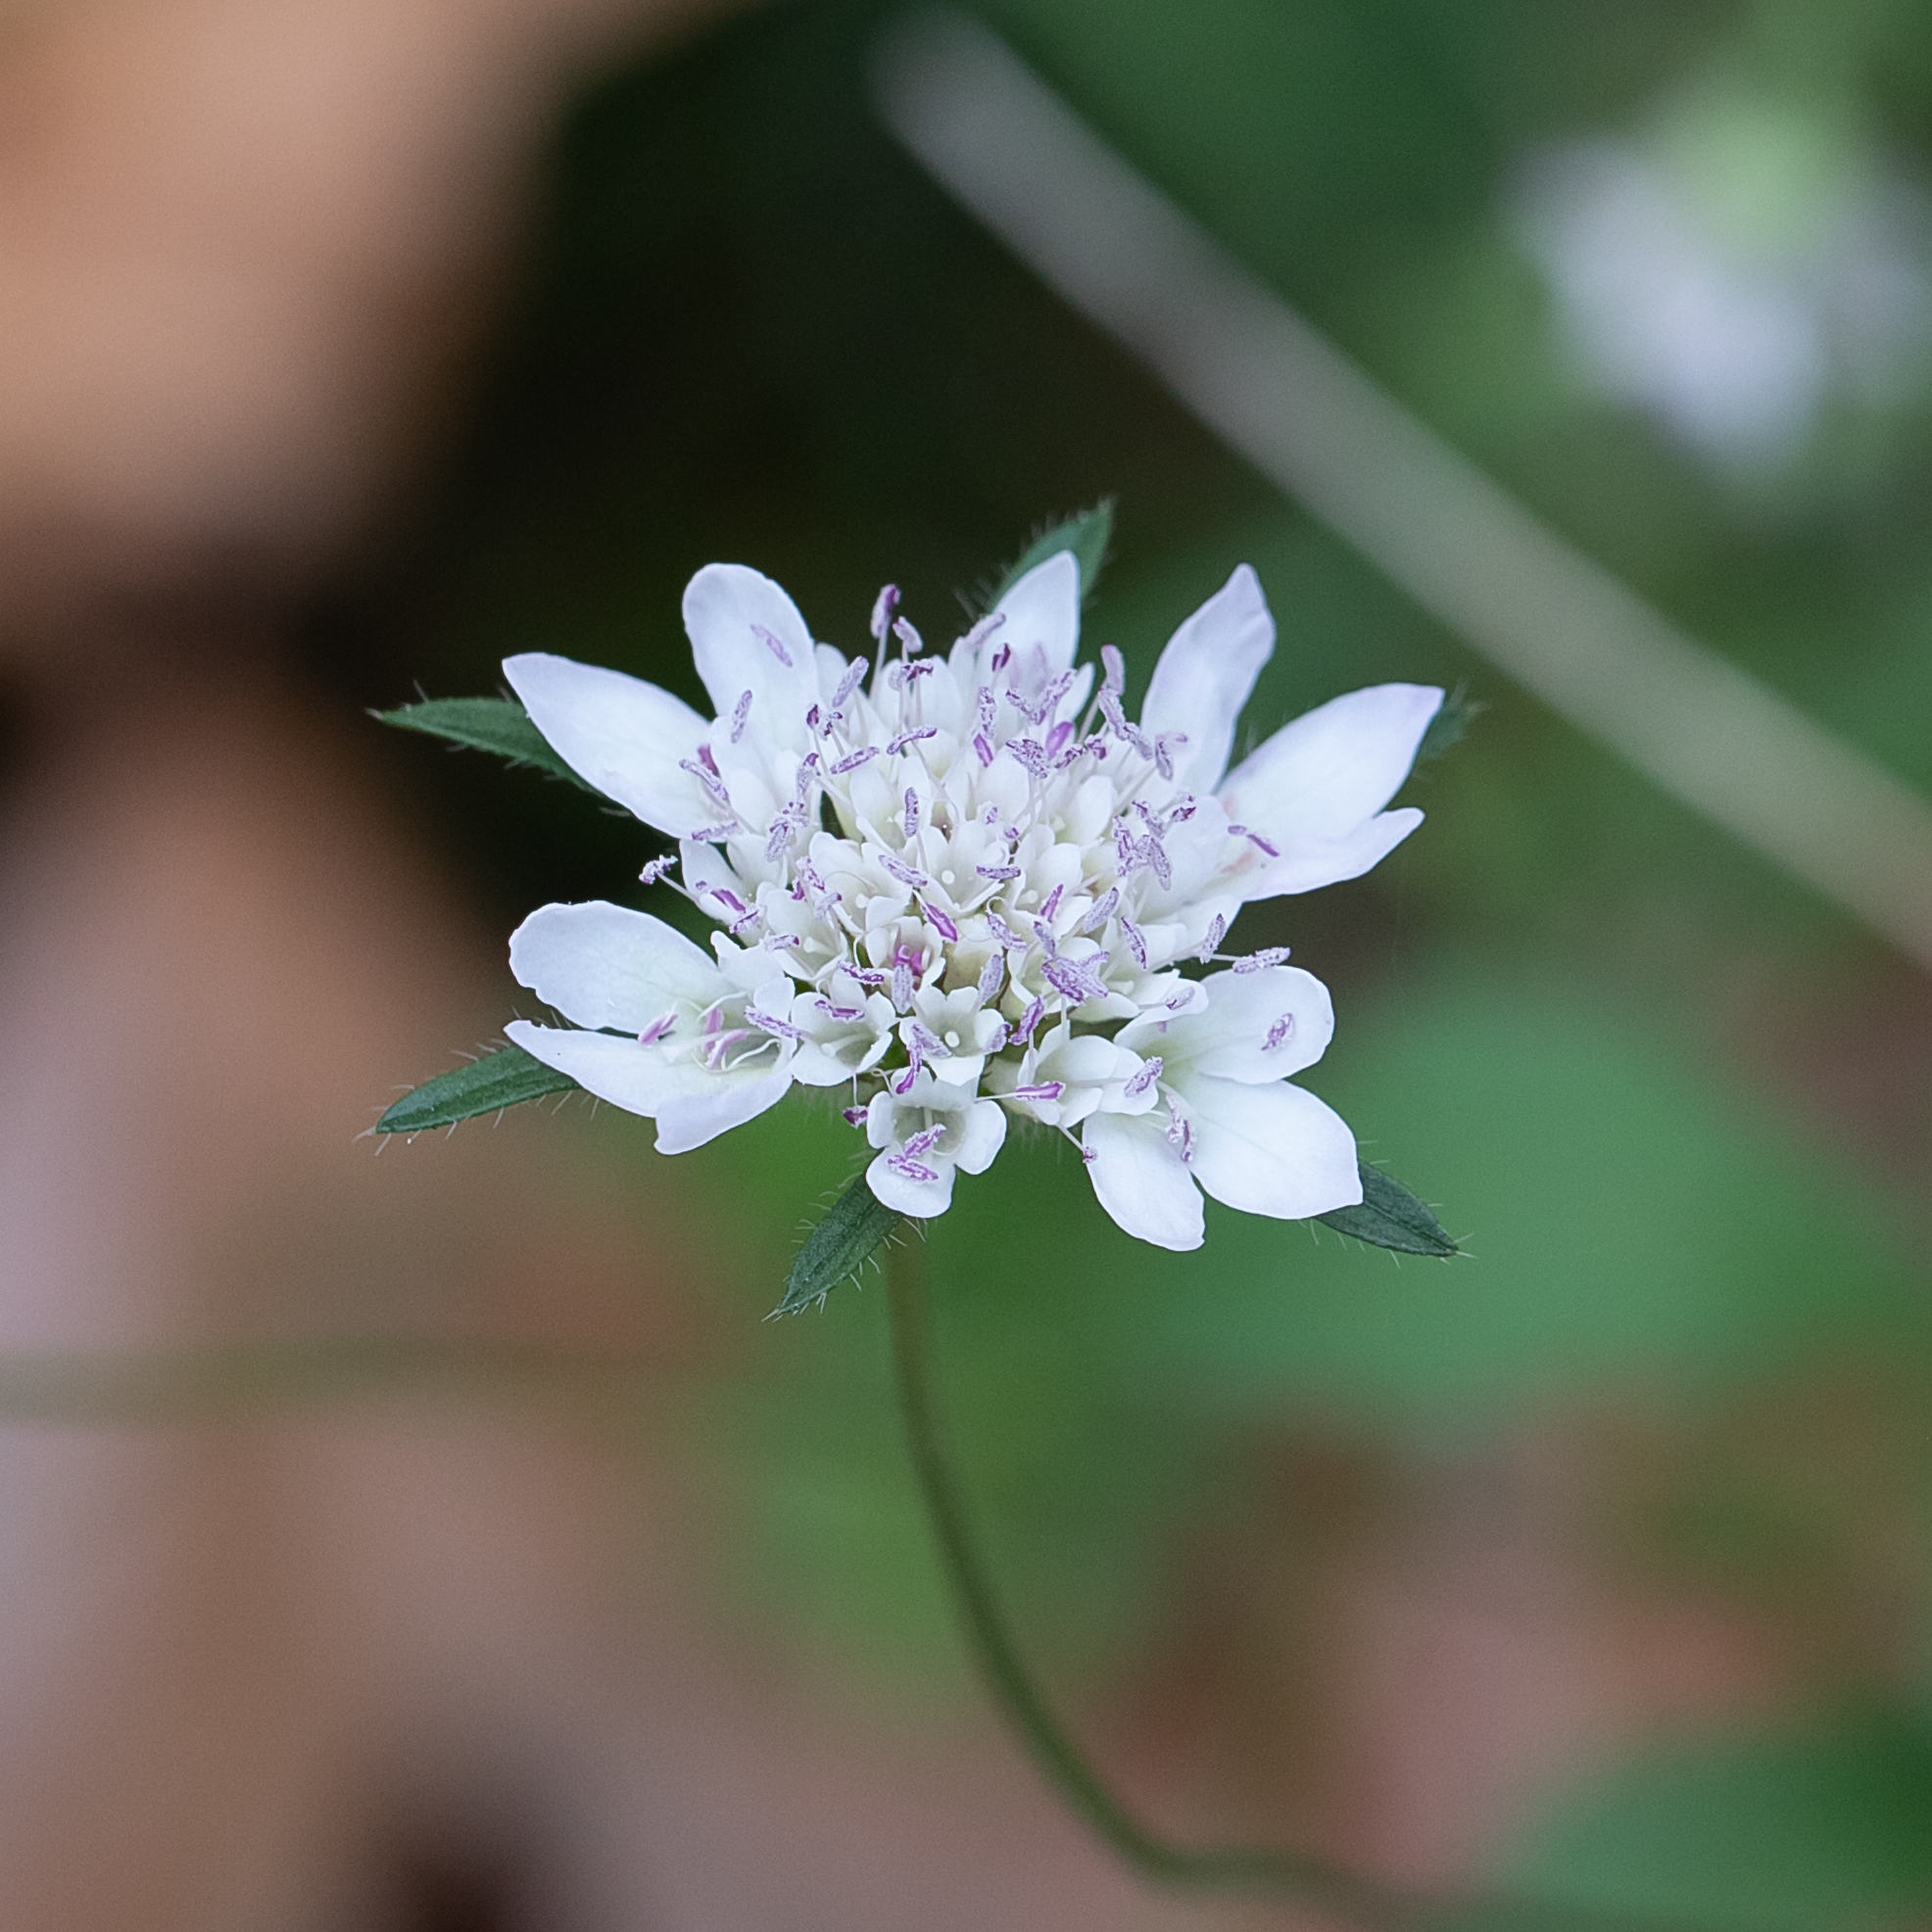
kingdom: Plantae
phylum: Tracheophyta
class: Magnoliopsida
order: Dipsacales
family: Caprifoliaceae
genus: Sixalix
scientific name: Sixalix atropurpurea
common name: Sweet scabious
